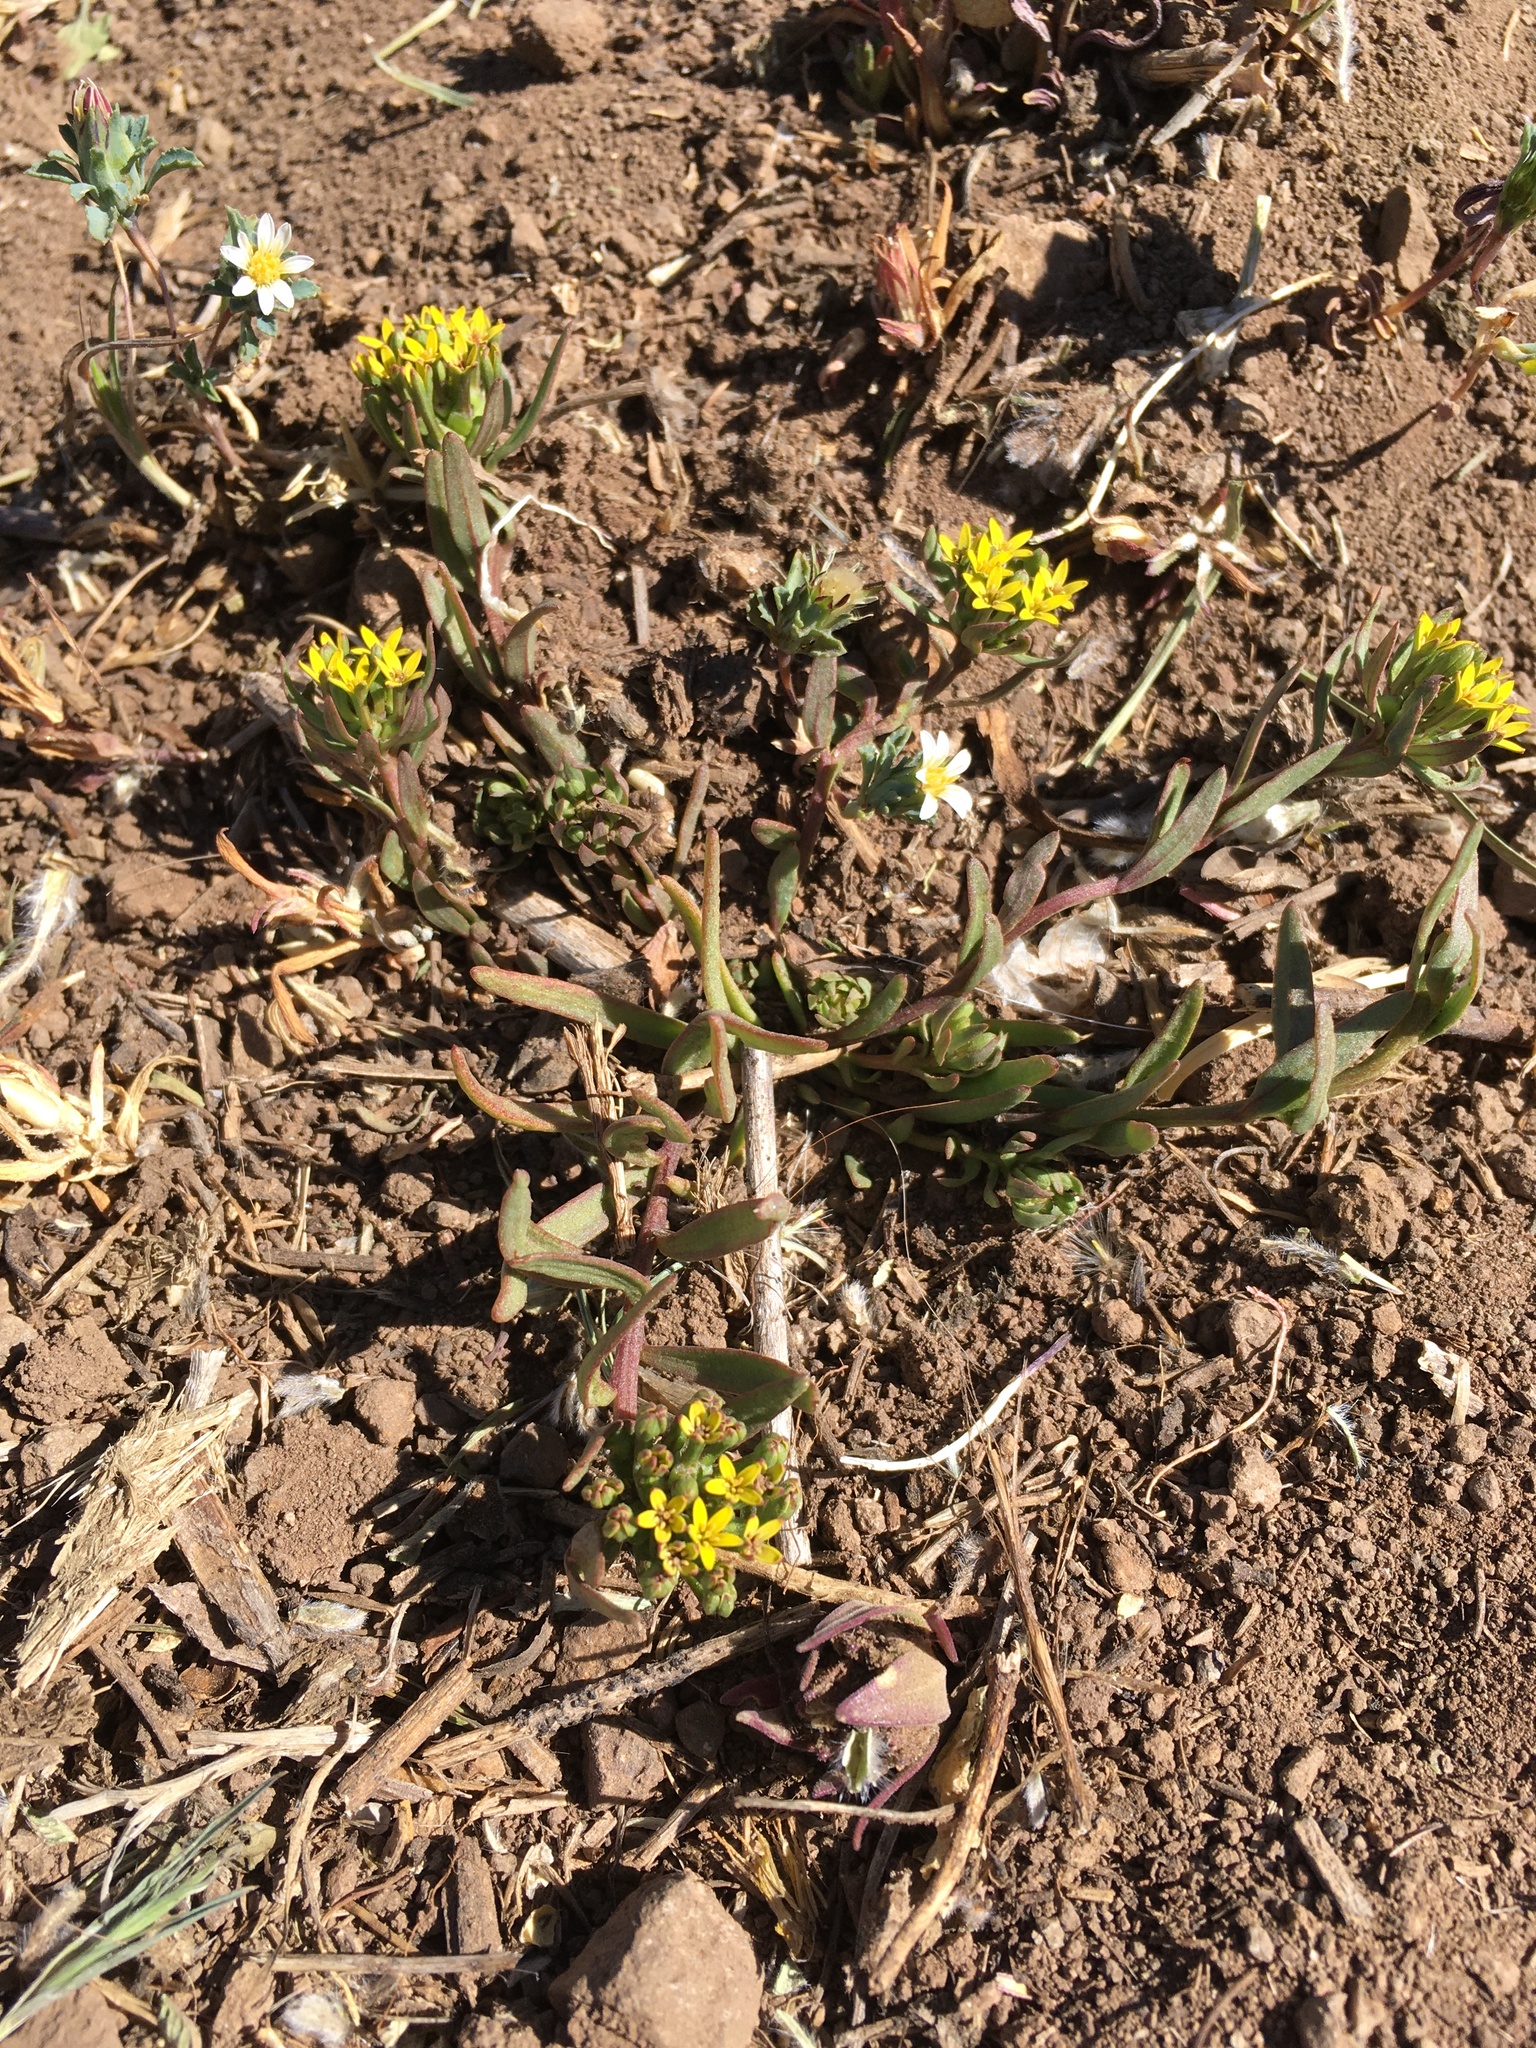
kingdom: Plantae
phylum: Tracheophyta
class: Magnoliopsida
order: Santalales
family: Schoepfiaceae
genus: Quinchamalium
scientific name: Quinchamalium chilense
